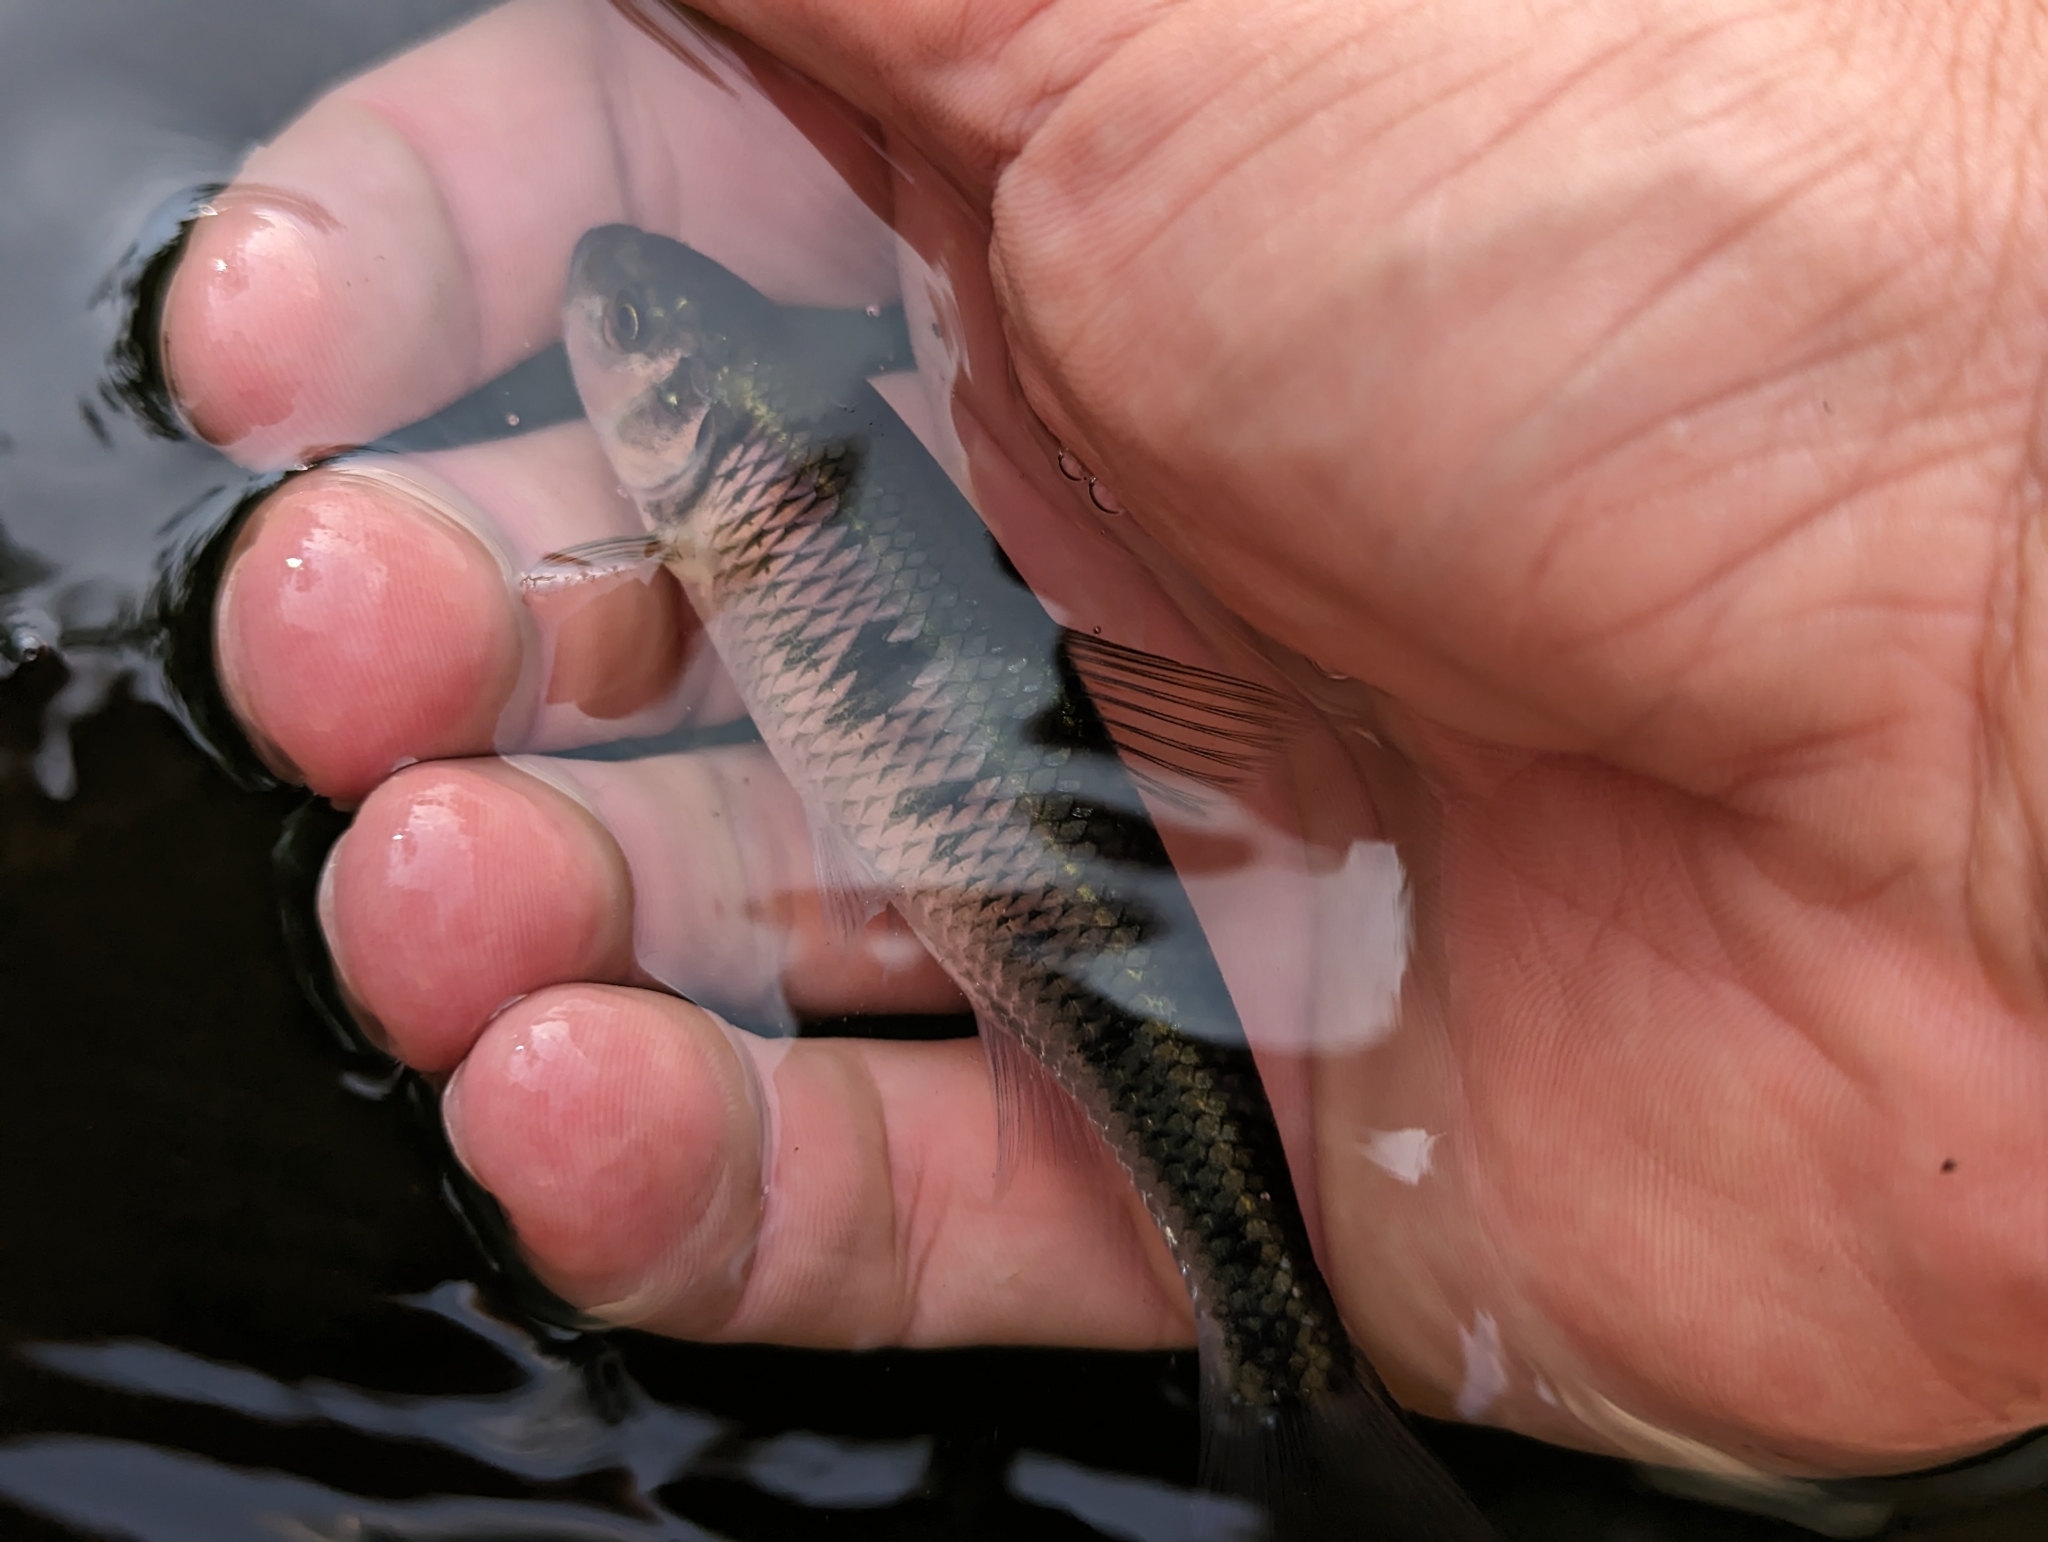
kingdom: Animalia
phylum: Chordata
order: Cypriniformes
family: Cyprinidae
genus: Luxilus
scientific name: Luxilus cornutus
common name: Common shiner
